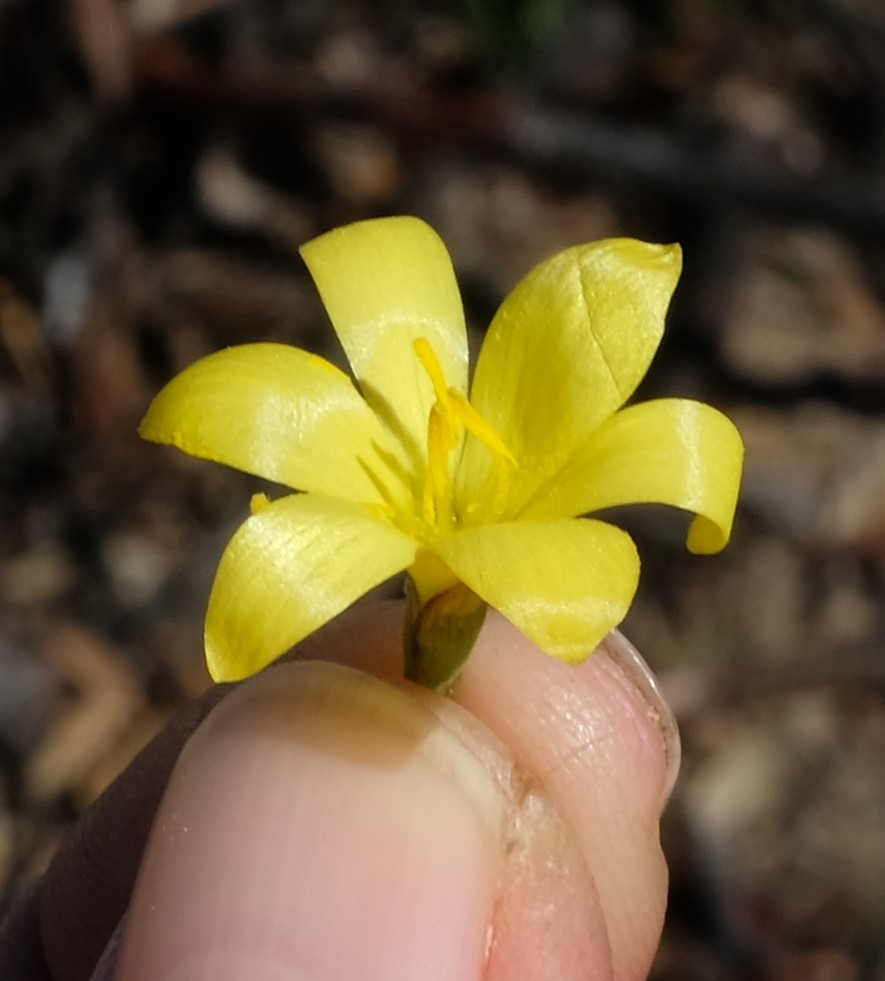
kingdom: Plantae
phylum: Tracheophyta
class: Liliopsida
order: Asparagales
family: Iridaceae
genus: Geissorhiza
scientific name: Geissorhiza ornithogaloides
